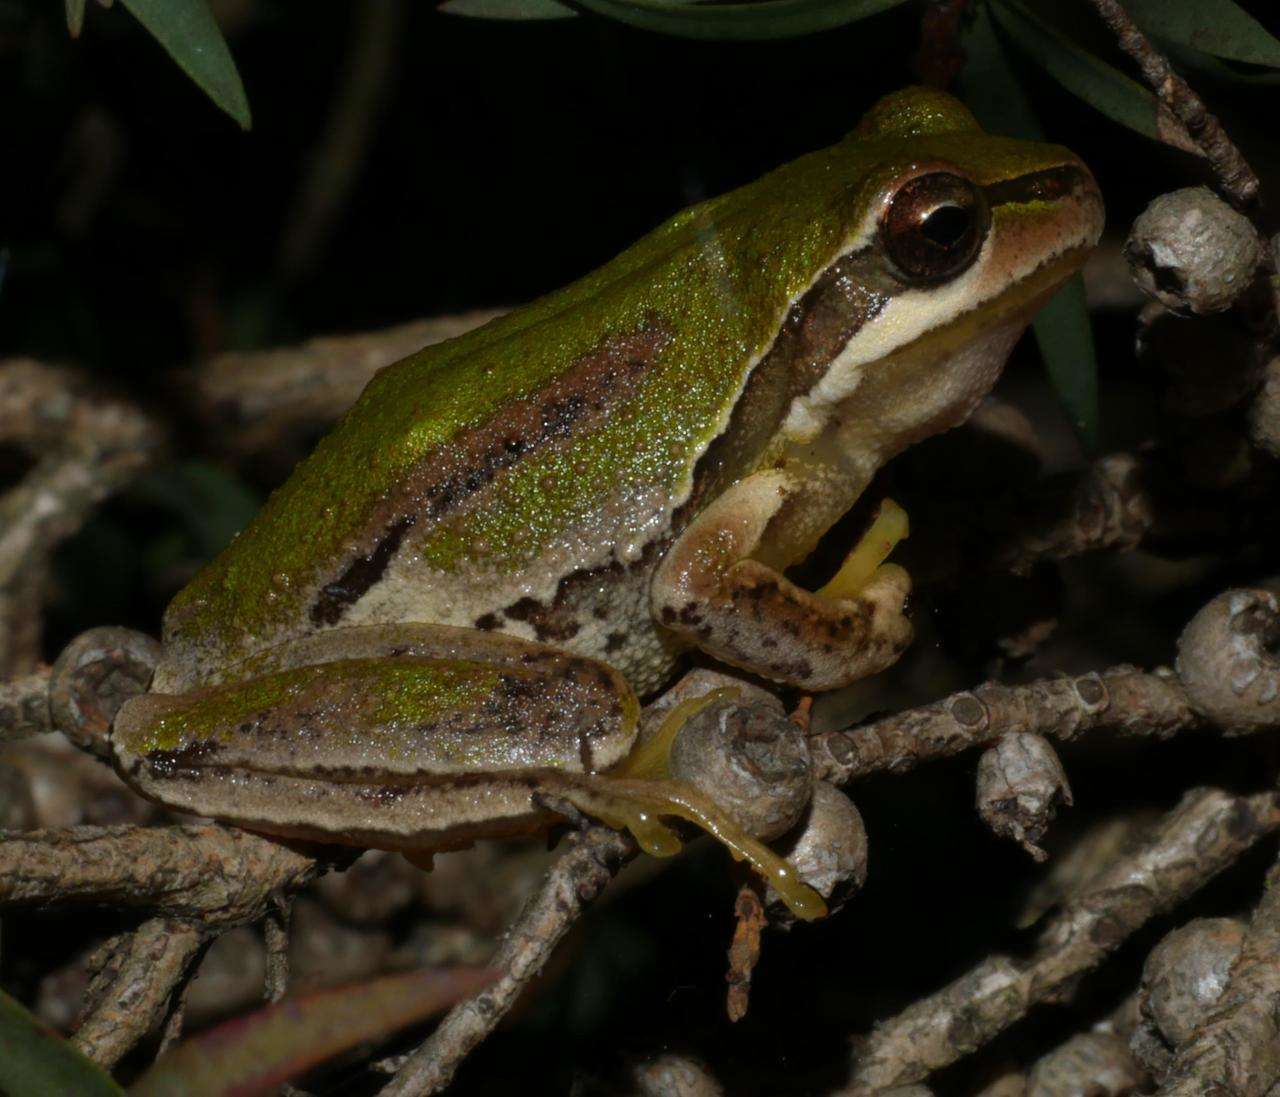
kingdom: Animalia
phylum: Chordata
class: Amphibia
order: Anura
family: Pelodryadidae
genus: Litoria
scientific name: Litoria ewingii
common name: Southern brown tree frog
